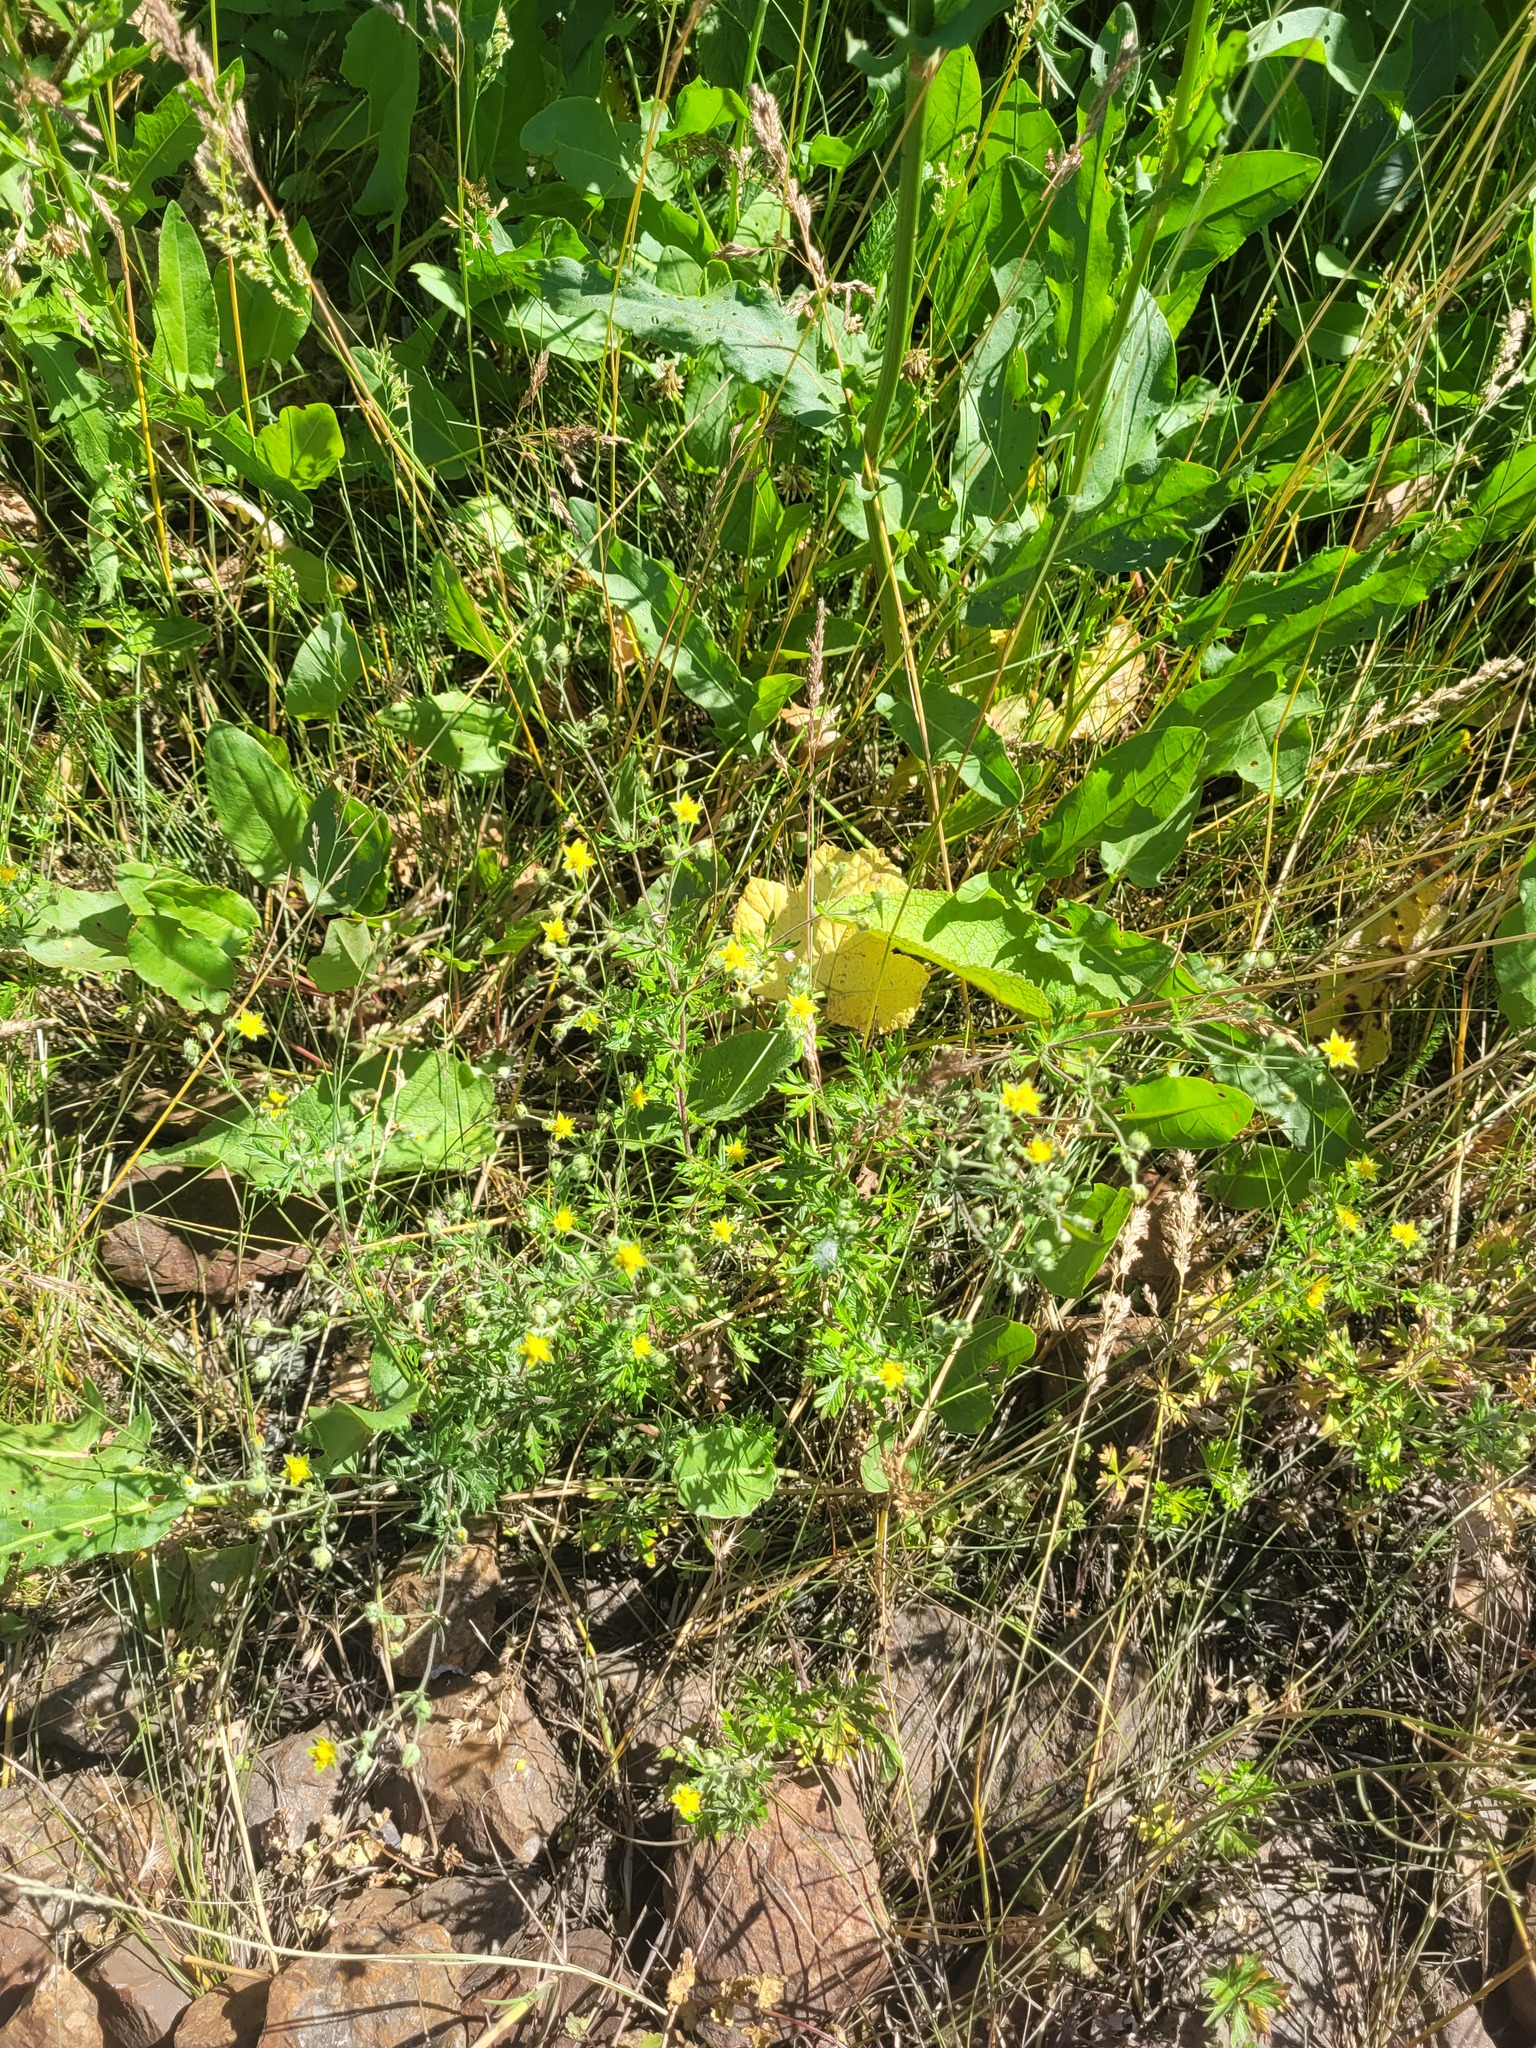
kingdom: Plantae
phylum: Tracheophyta
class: Magnoliopsida
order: Rosales
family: Rosaceae
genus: Potentilla
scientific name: Potentilla argentea
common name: Hoary cinquefoil
